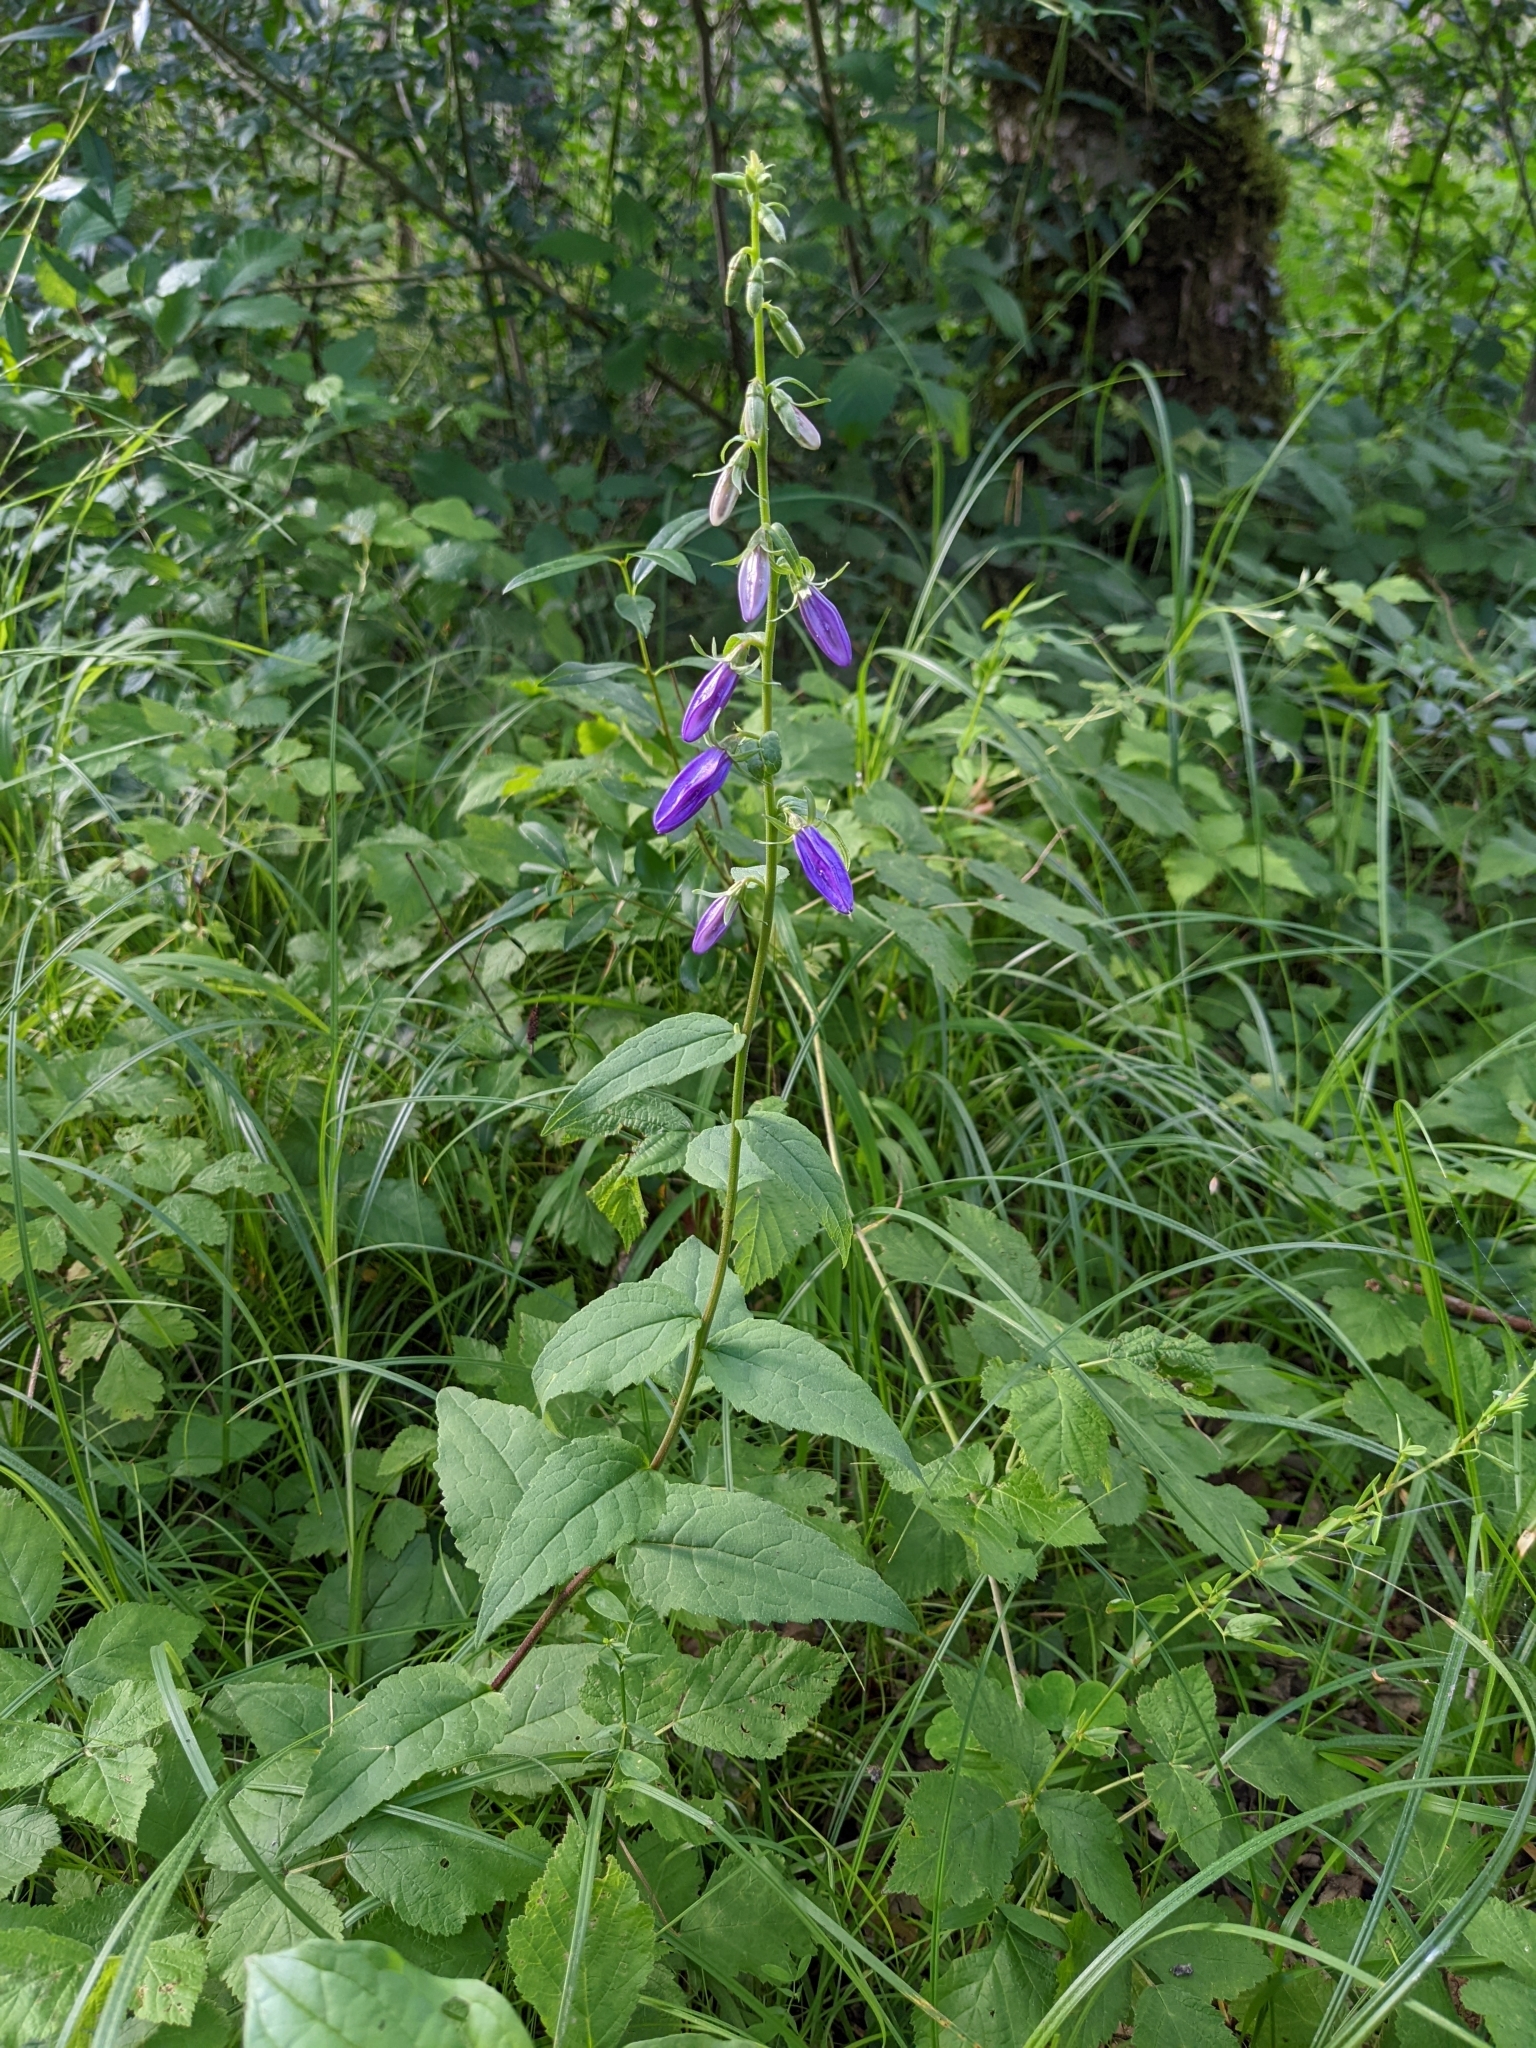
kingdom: Plantae
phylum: Tracheophyta
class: Magnoliopsida
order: Asterales
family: Campanulaceae
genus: Campanula
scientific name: Campanula rapunculoides
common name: Creeping bellflower
